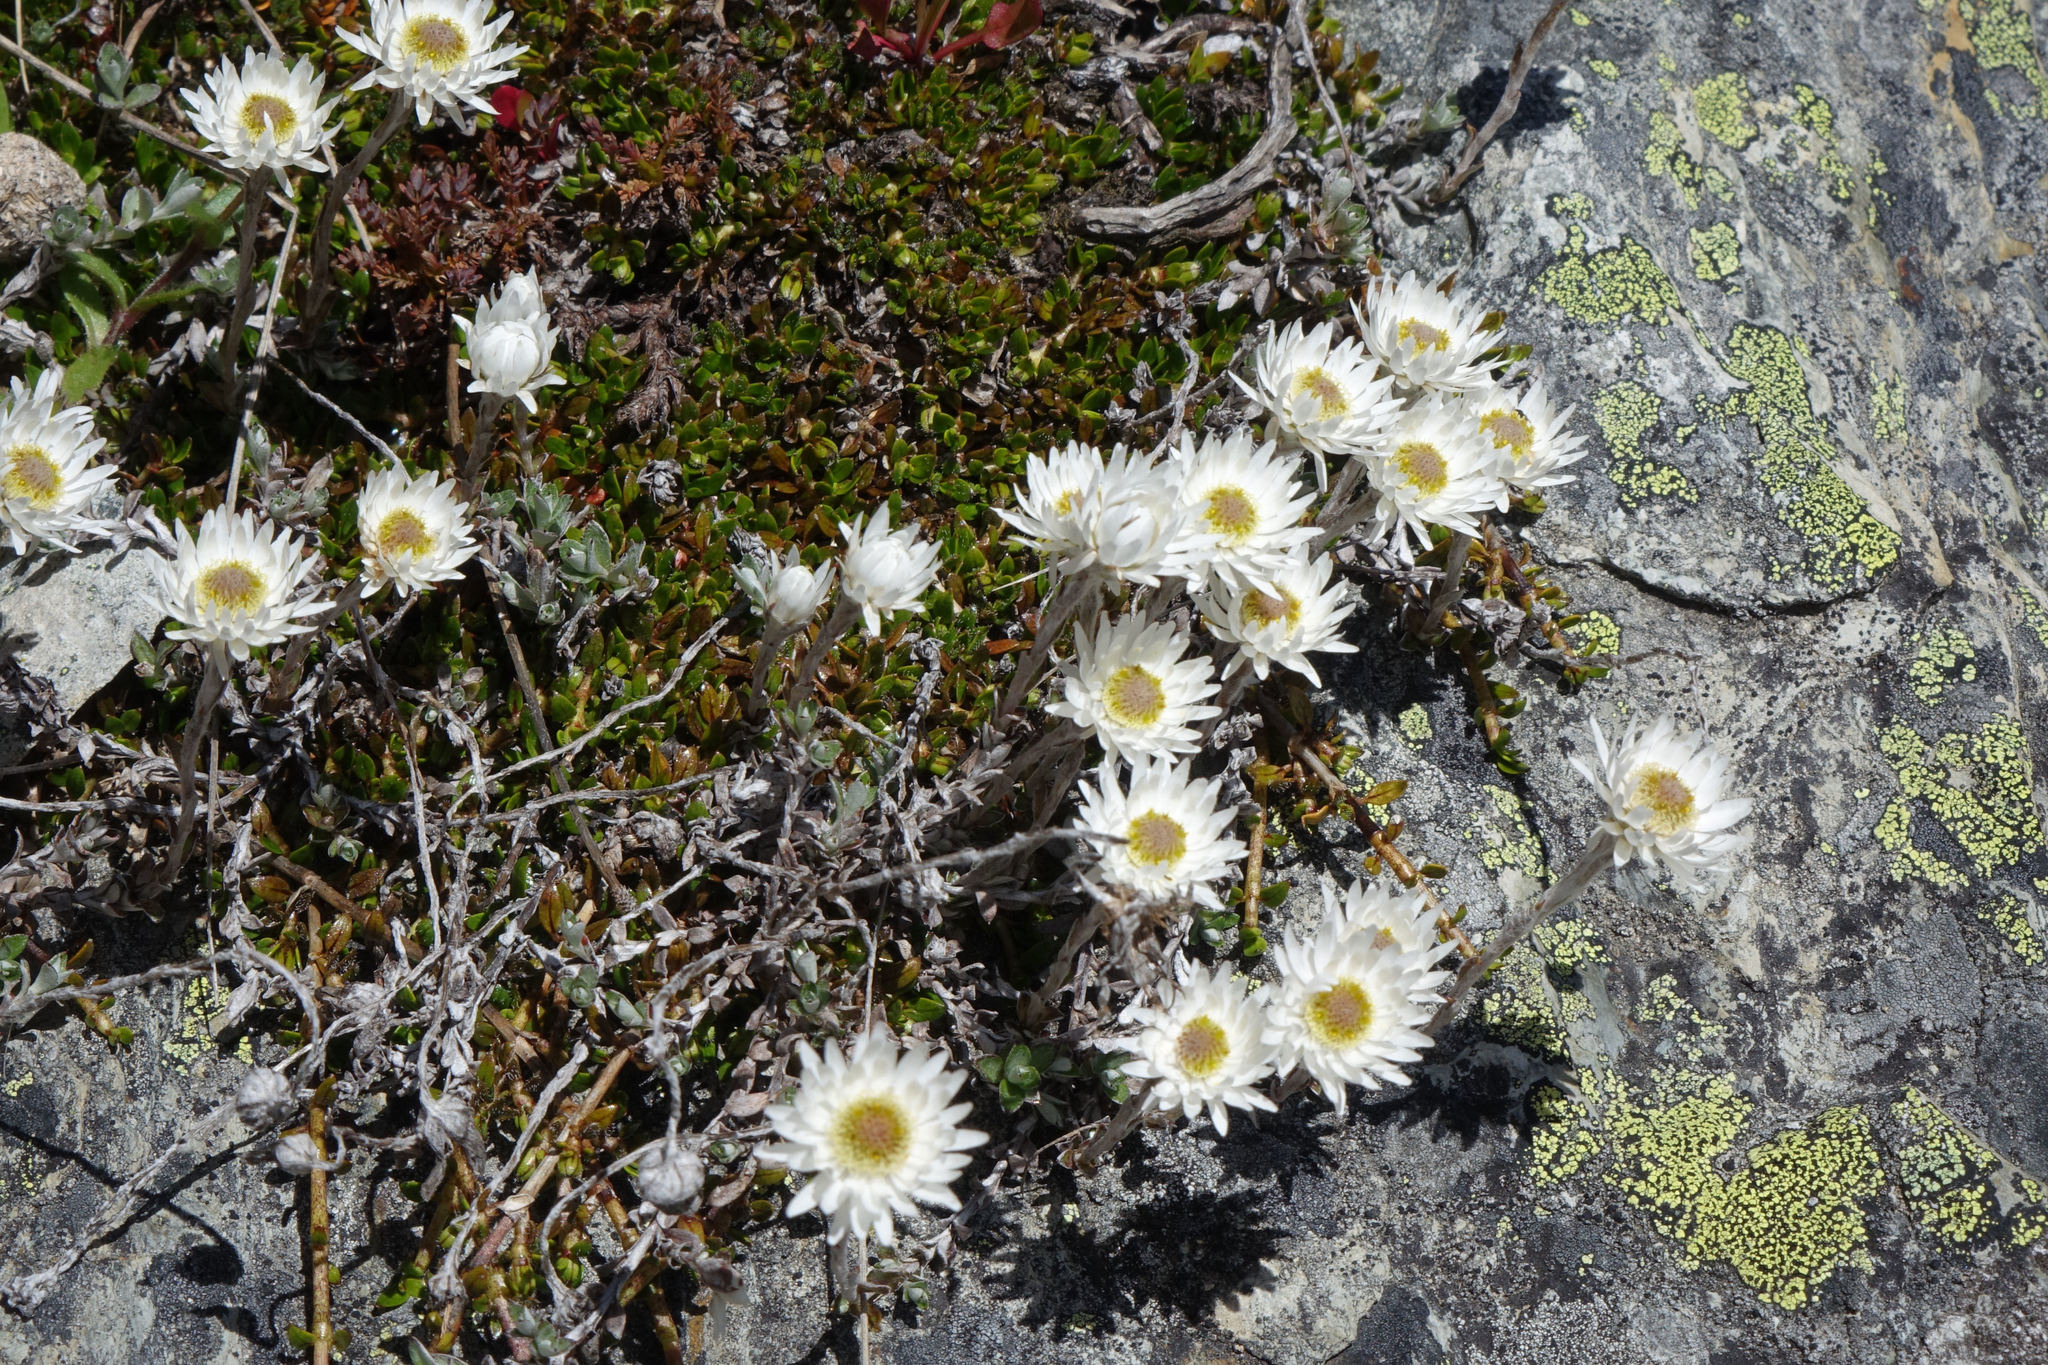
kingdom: Plantae
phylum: Tracheophyta
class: Magnoliopsida
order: Asterales
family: Asteraceae
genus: Anaphalioides
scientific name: Anaphalioides bellidioides
